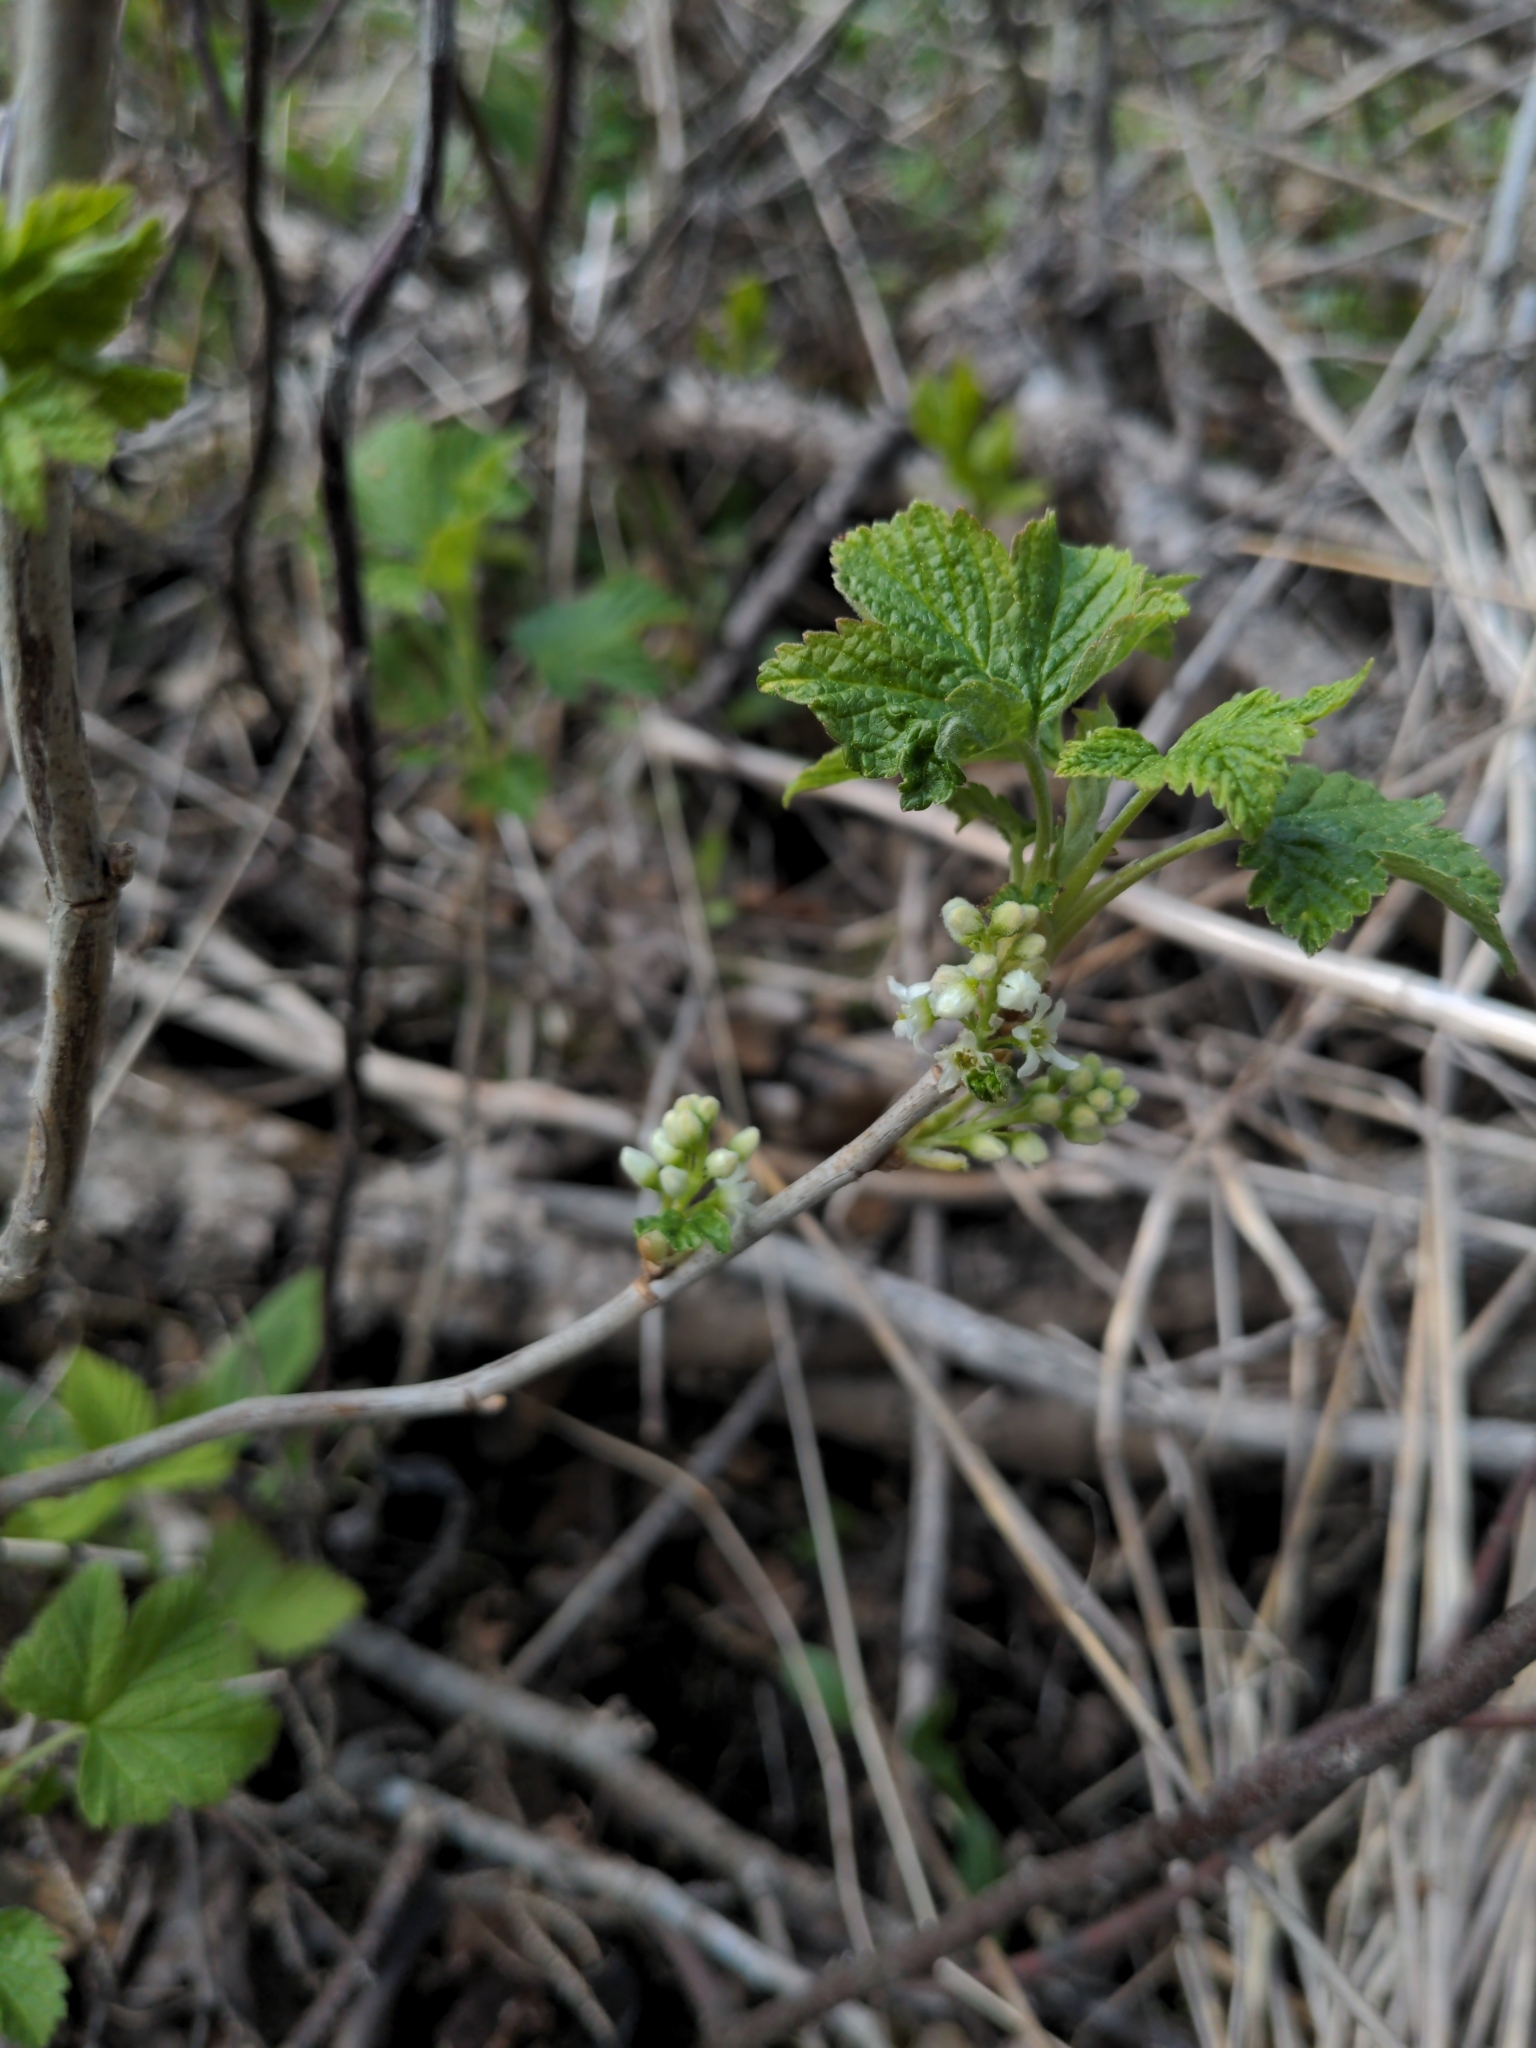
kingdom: Plantae
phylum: Tracheophyta
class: Magnoliopsida
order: Saxifragales
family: Grossulariaceae
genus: Ribes
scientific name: Ribes hudsonianum
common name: Northern black currant
